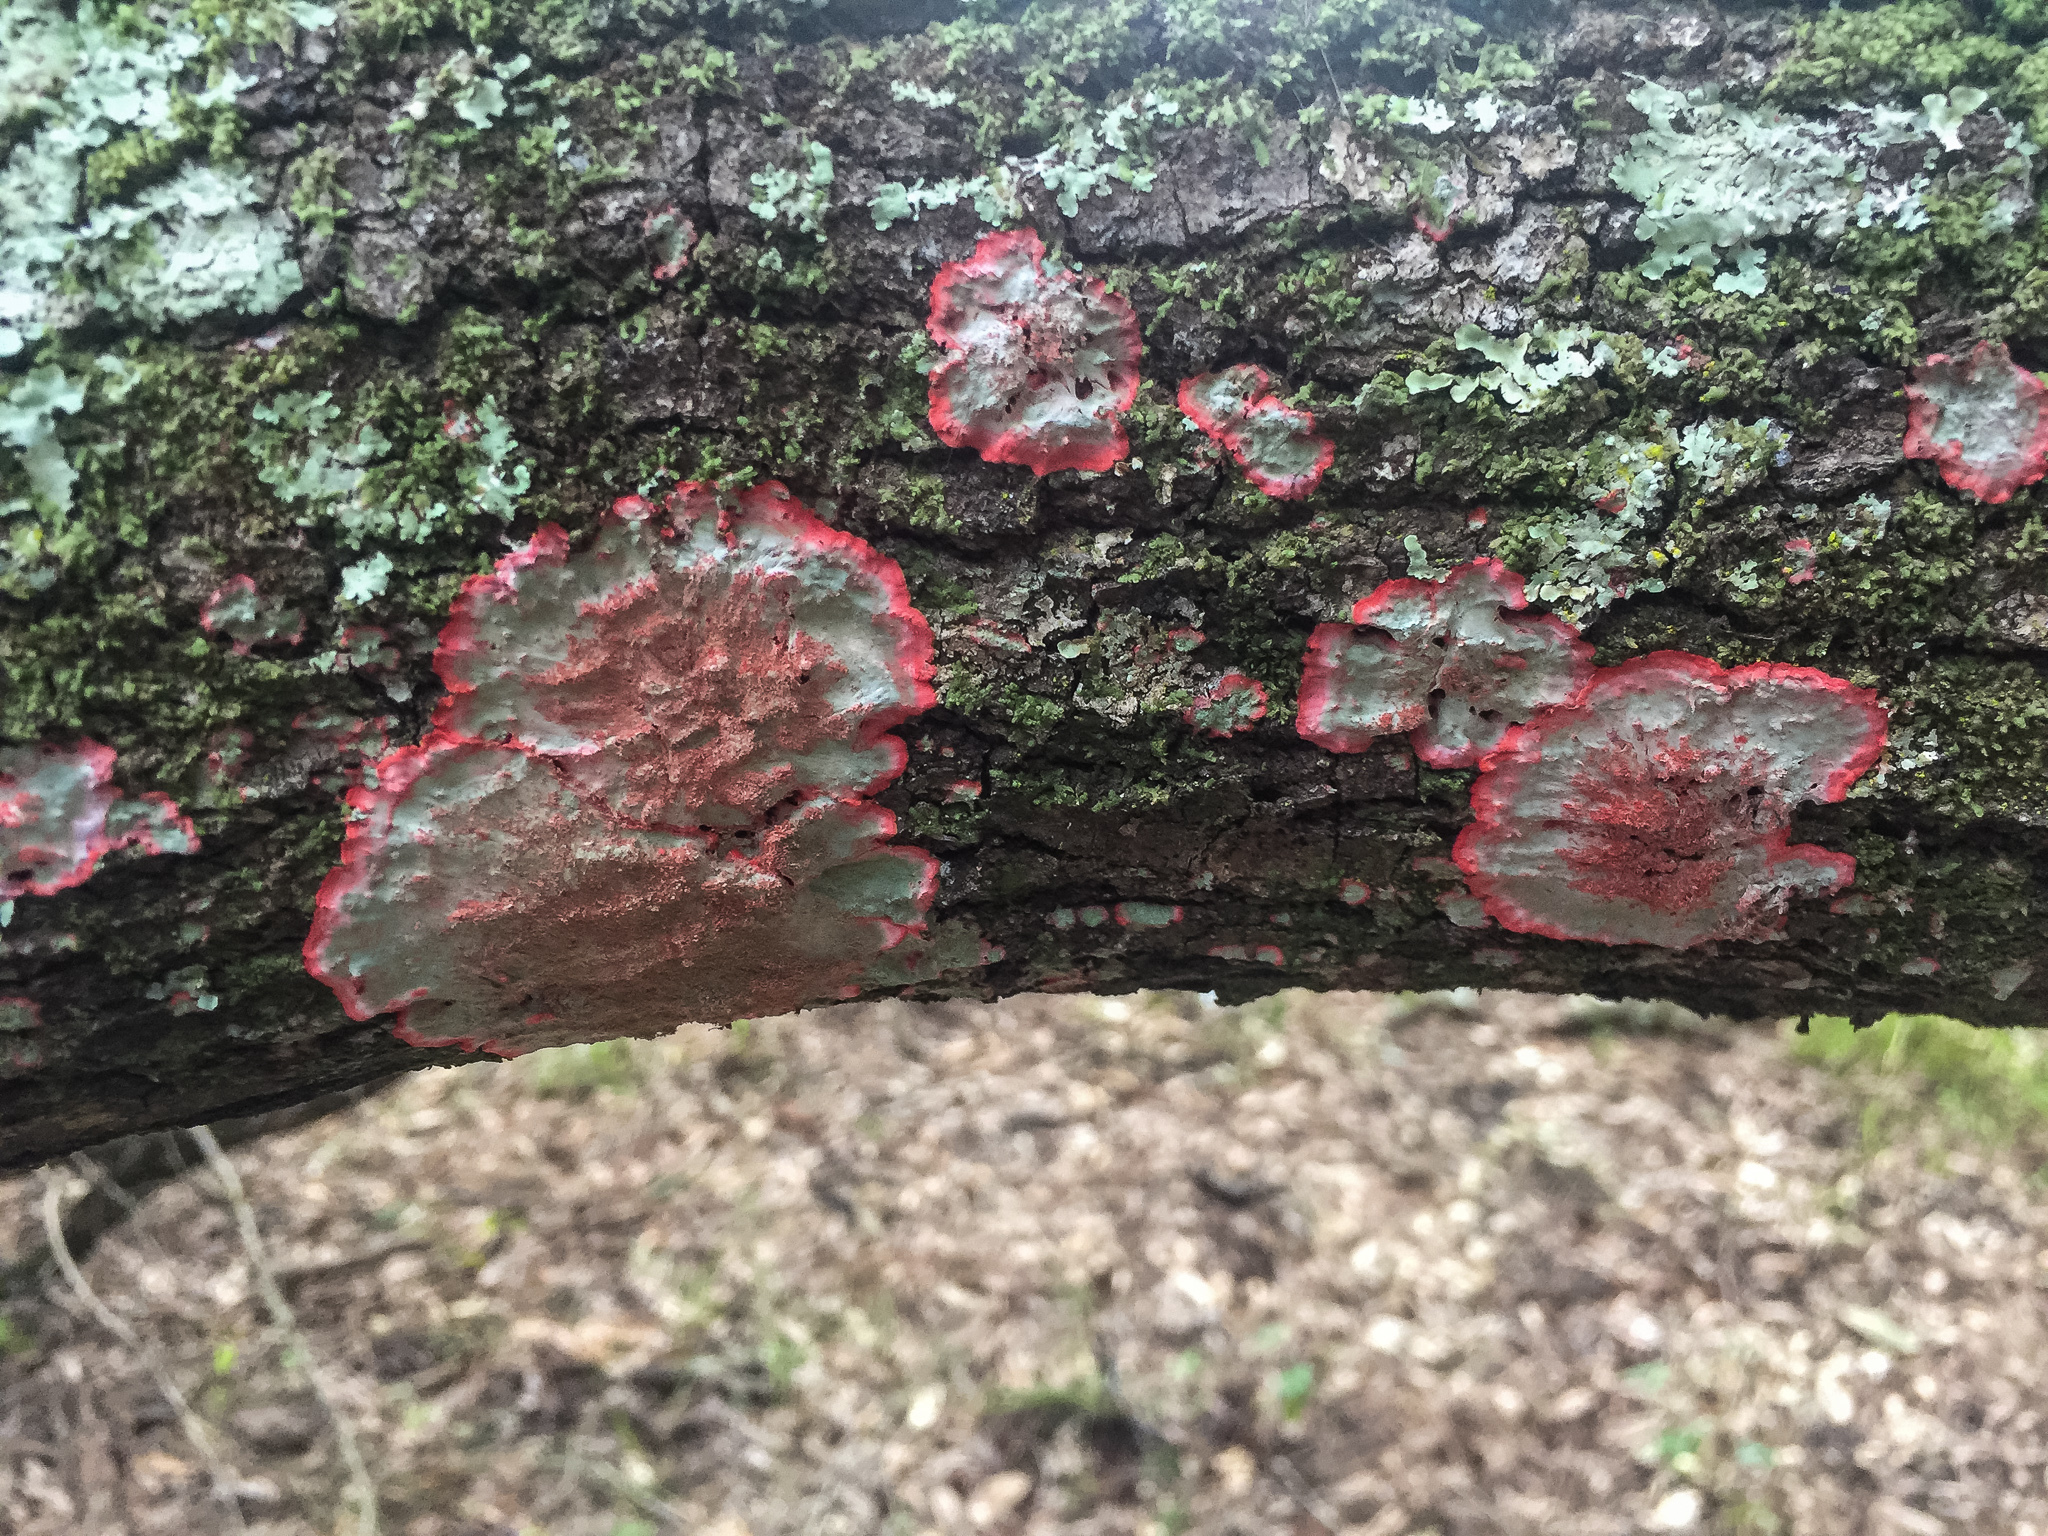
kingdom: Fungi
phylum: Ascomycota
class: Arthoniomycetes
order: Arthoniales
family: Arthoniaceae
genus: Herpothallon
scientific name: Herpothallon rubrocinctum
